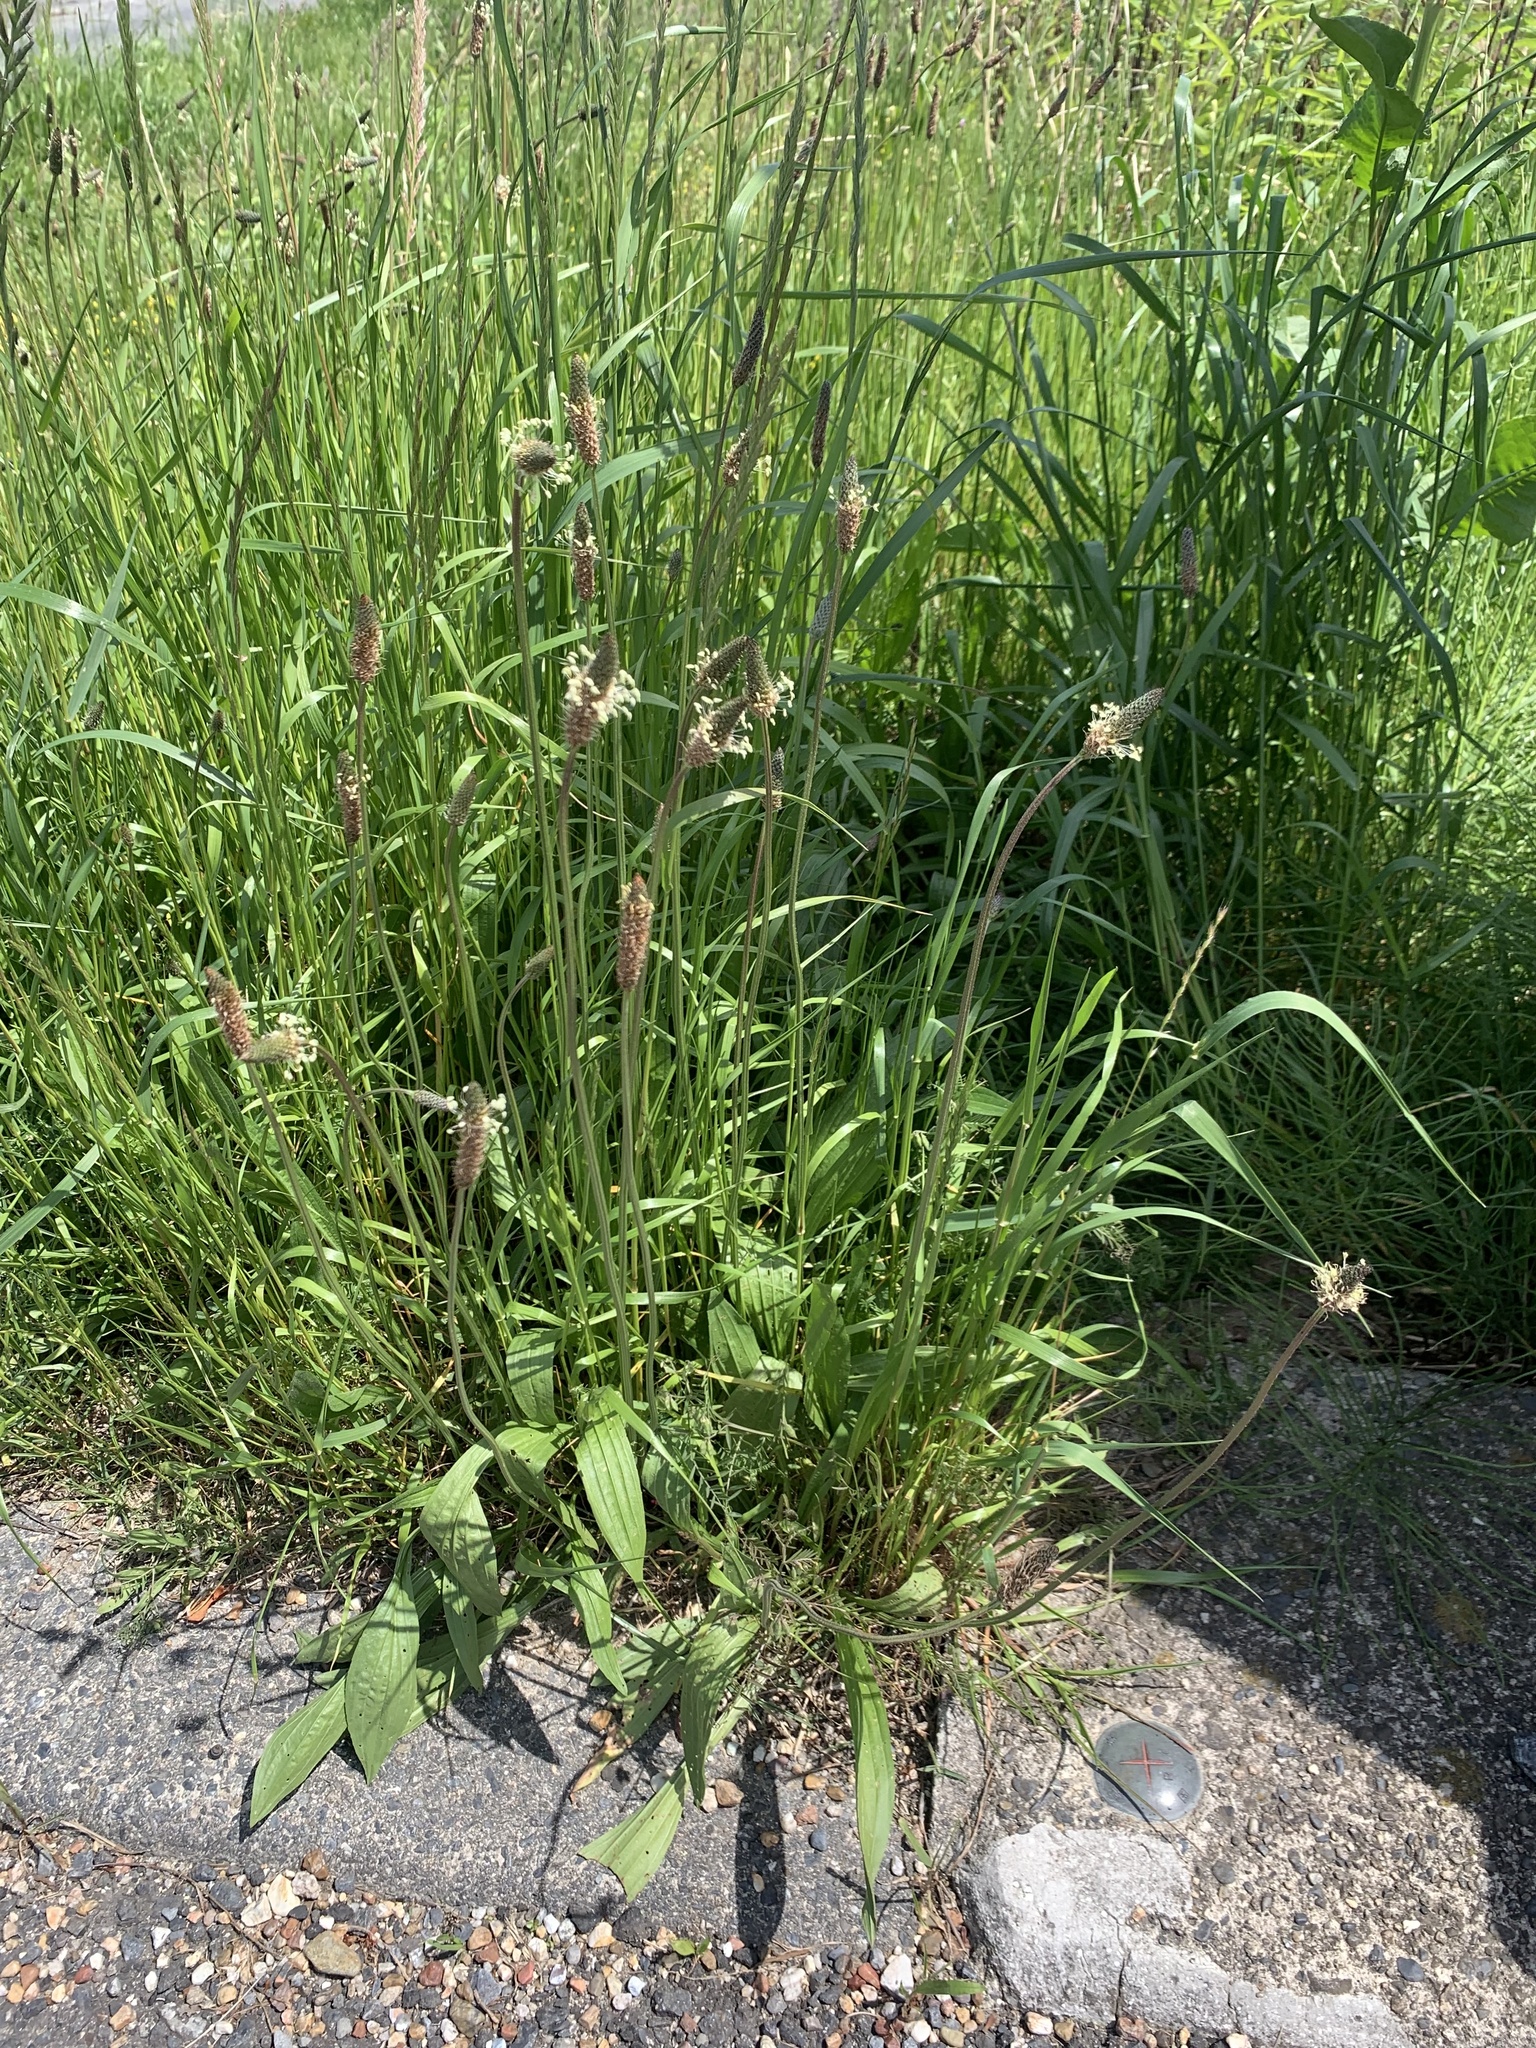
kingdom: Plantae
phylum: Tracheophyta
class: Magnoliopsida
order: Lamiales
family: Plantaginaceae
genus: Plantago
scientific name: Plantago lanceolata
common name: Ribwort plantain
